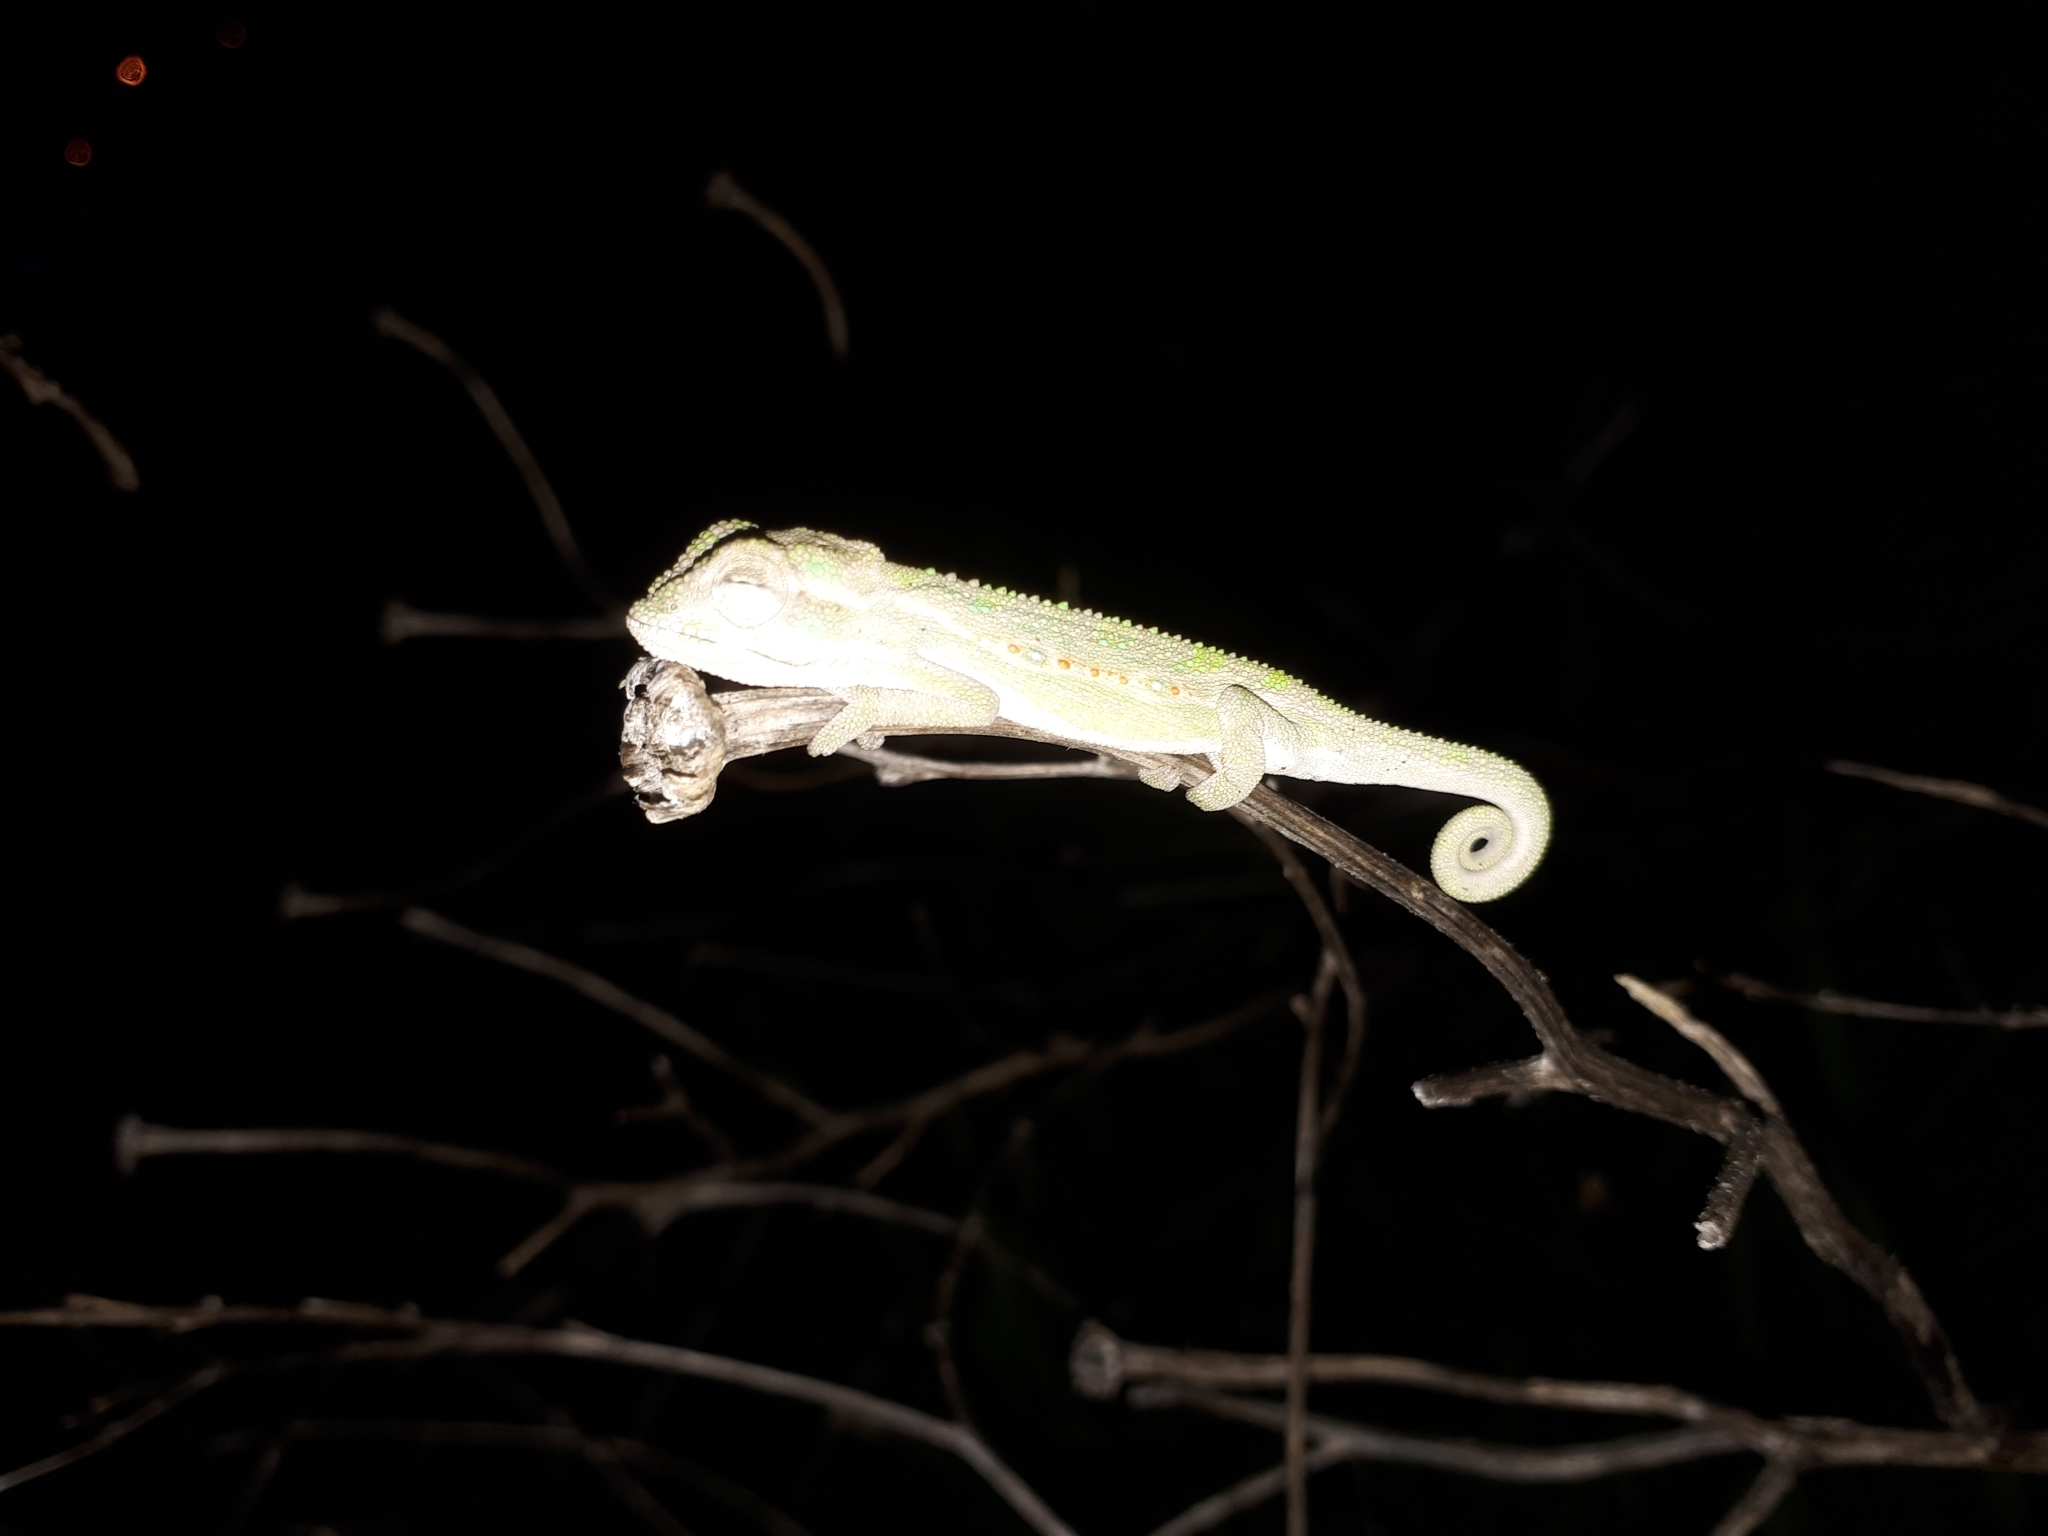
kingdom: Animalia
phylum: Chordata
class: Squamata
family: Chamaeleonidae
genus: Bradypodion
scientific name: Bradypodion pumilum
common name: Cape dwarf chameleon
